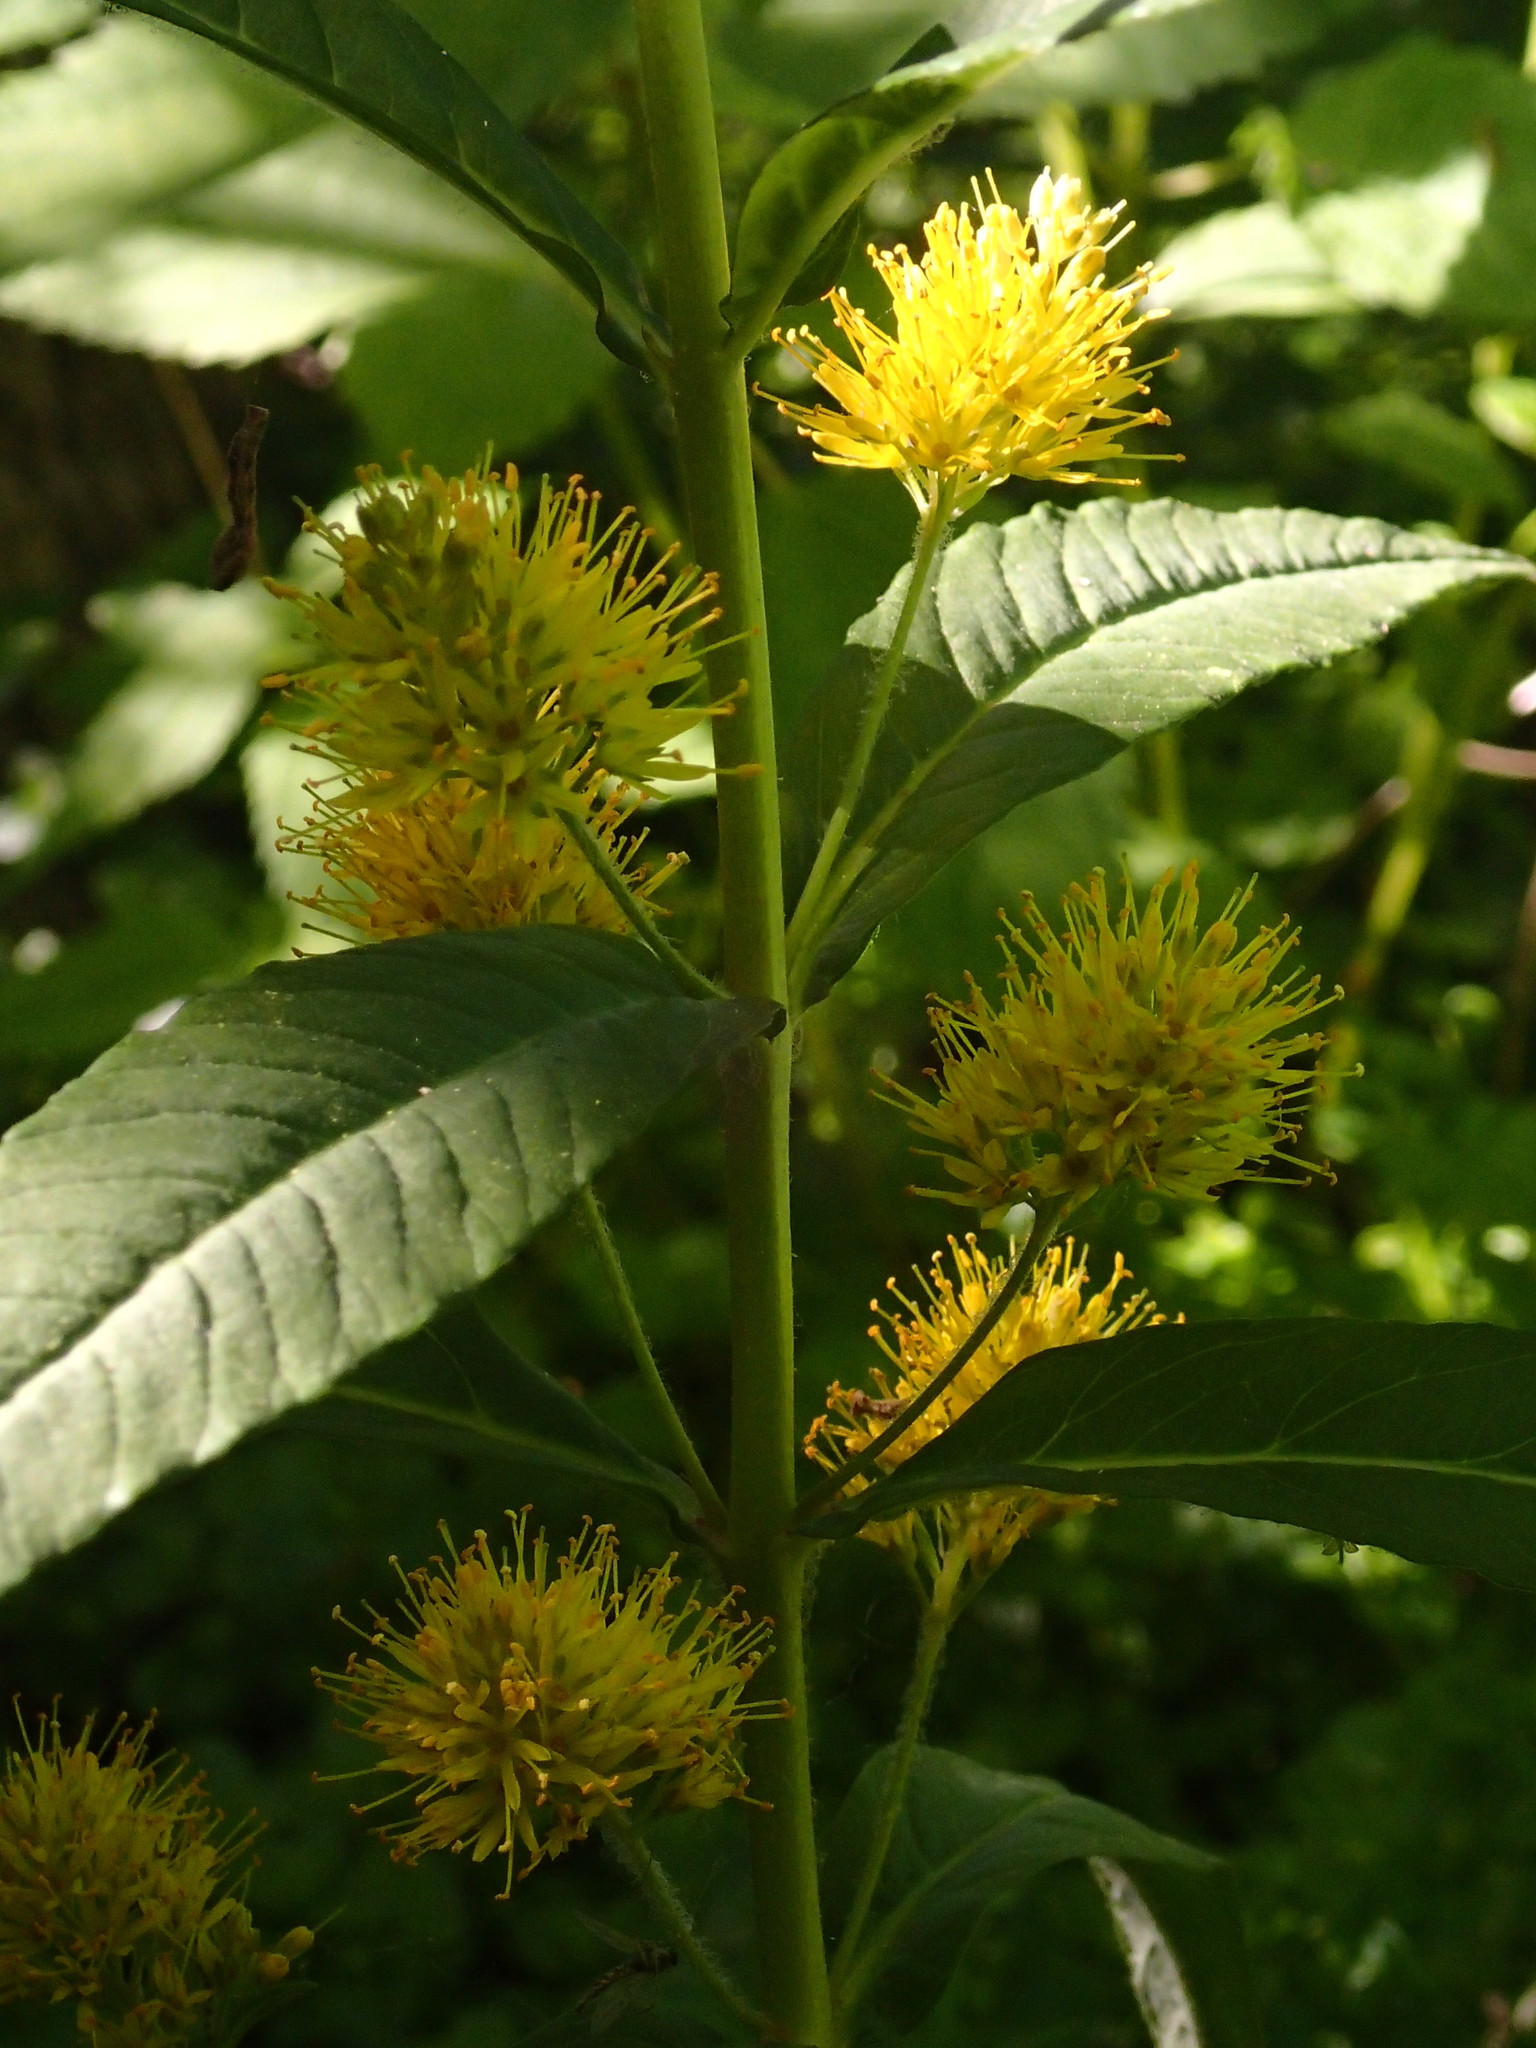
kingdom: Plantae
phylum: Tracheophyta
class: Magnoliopsida
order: Ericales
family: Primulaceae
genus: Lysimachia
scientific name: Lysimachia thyrsiflora
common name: Tufted loosestrife
